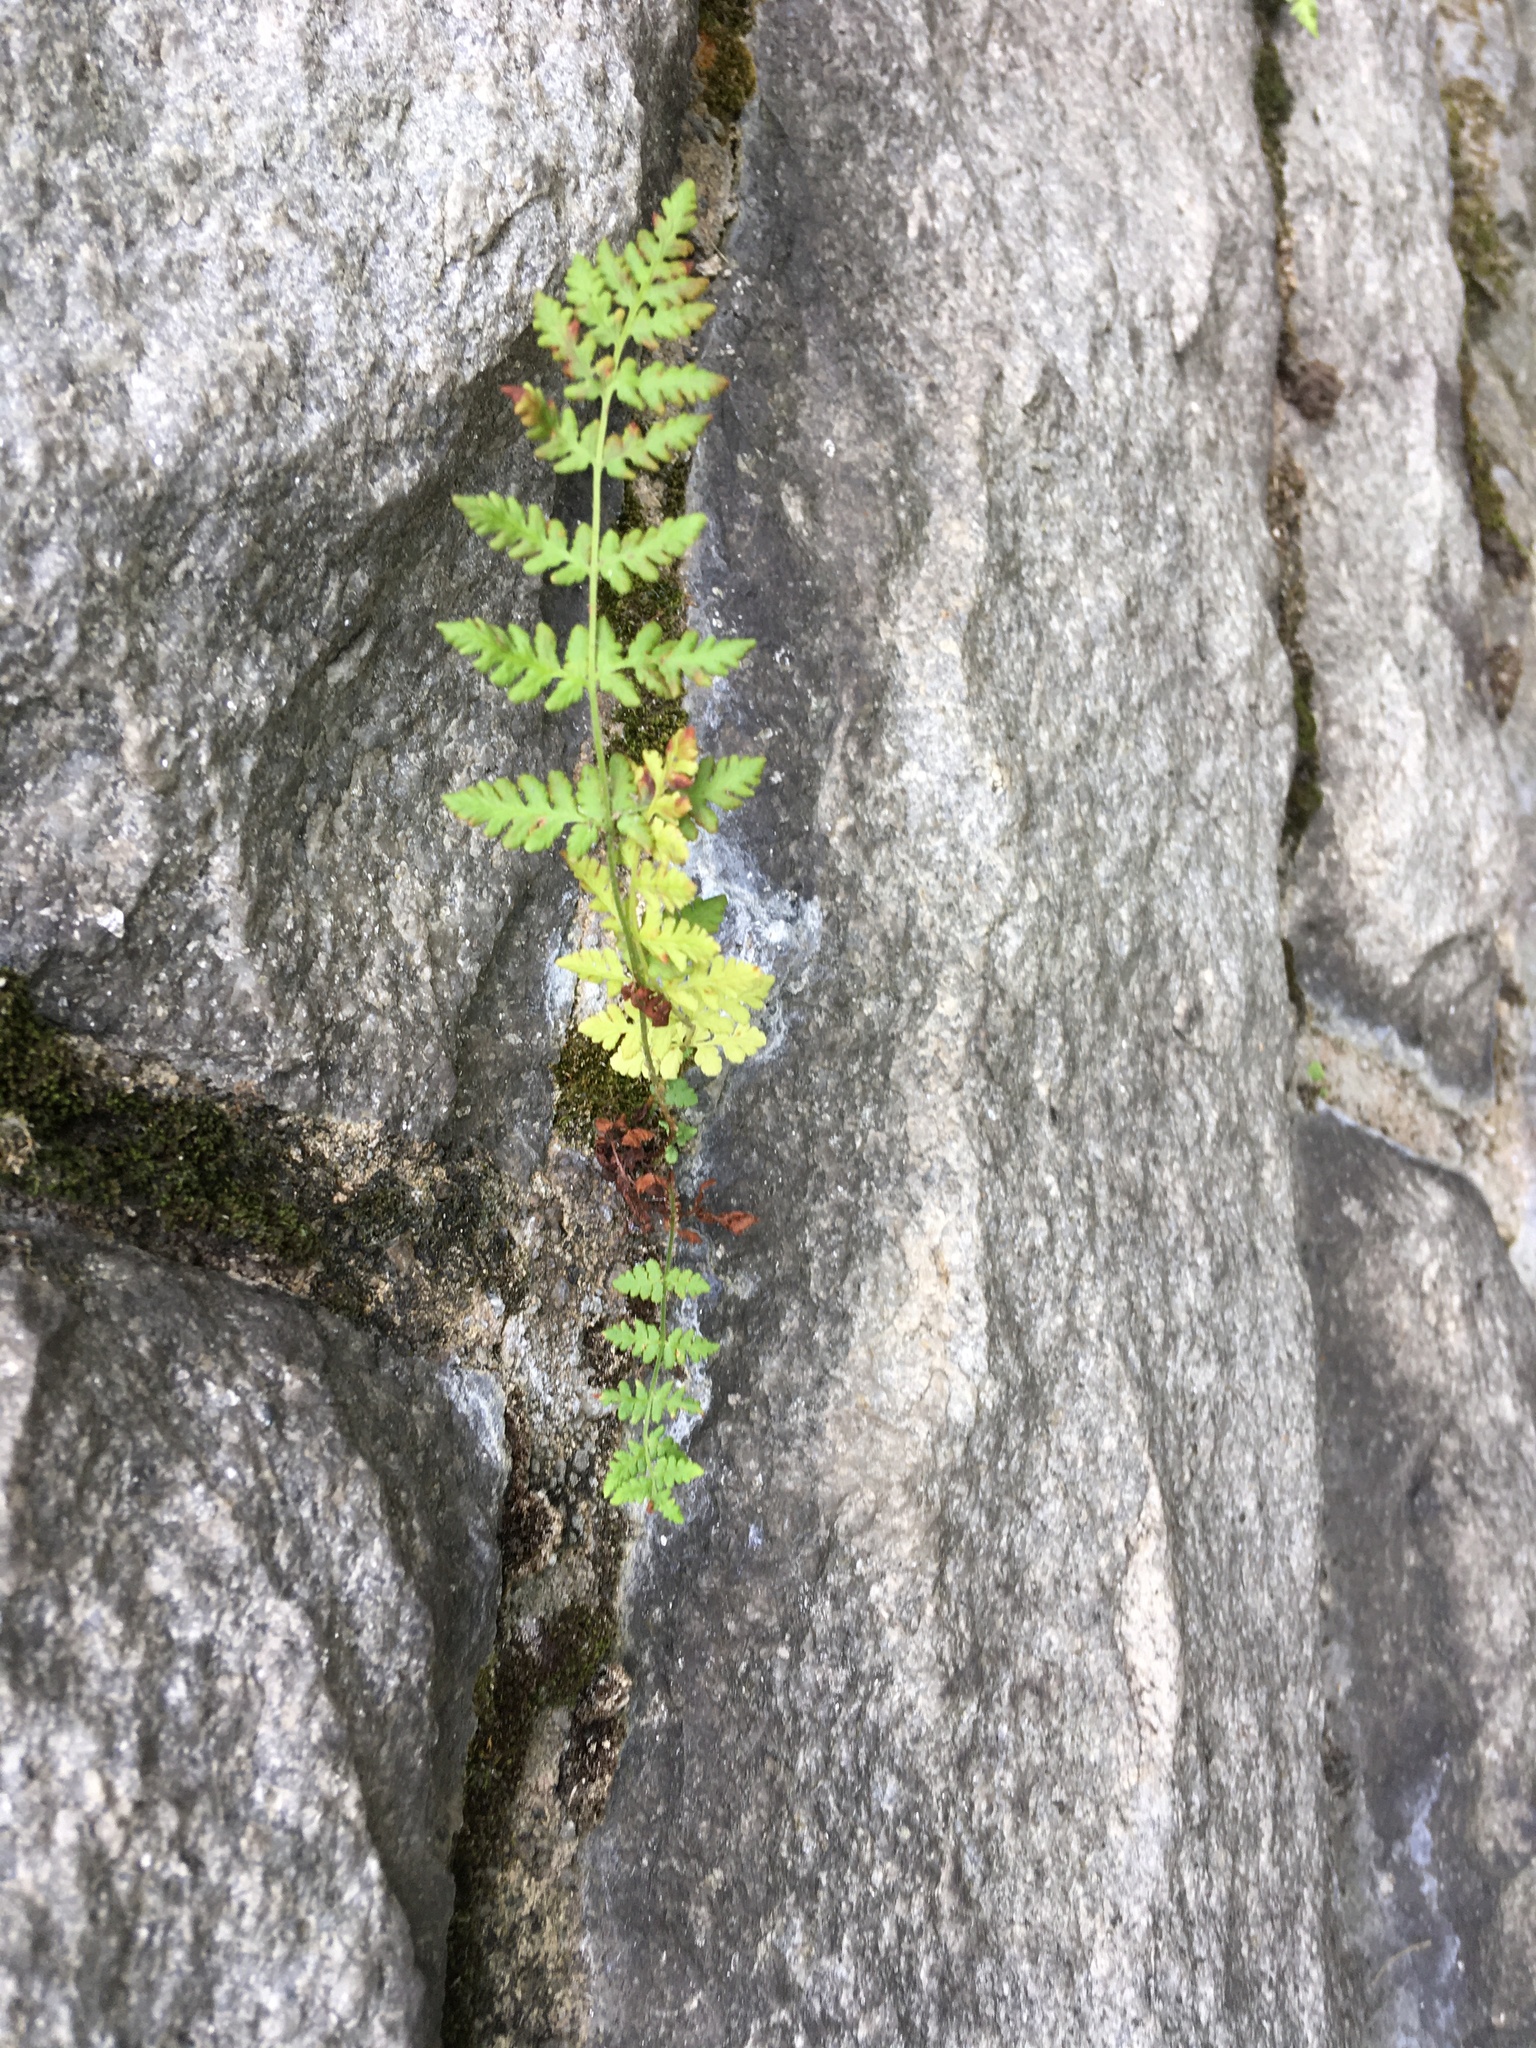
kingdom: Plantae
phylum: Tracheophyta
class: Polypodiopsida
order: Polypodiales
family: Woodsiaceae
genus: Physematium
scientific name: Physematium obtusum
